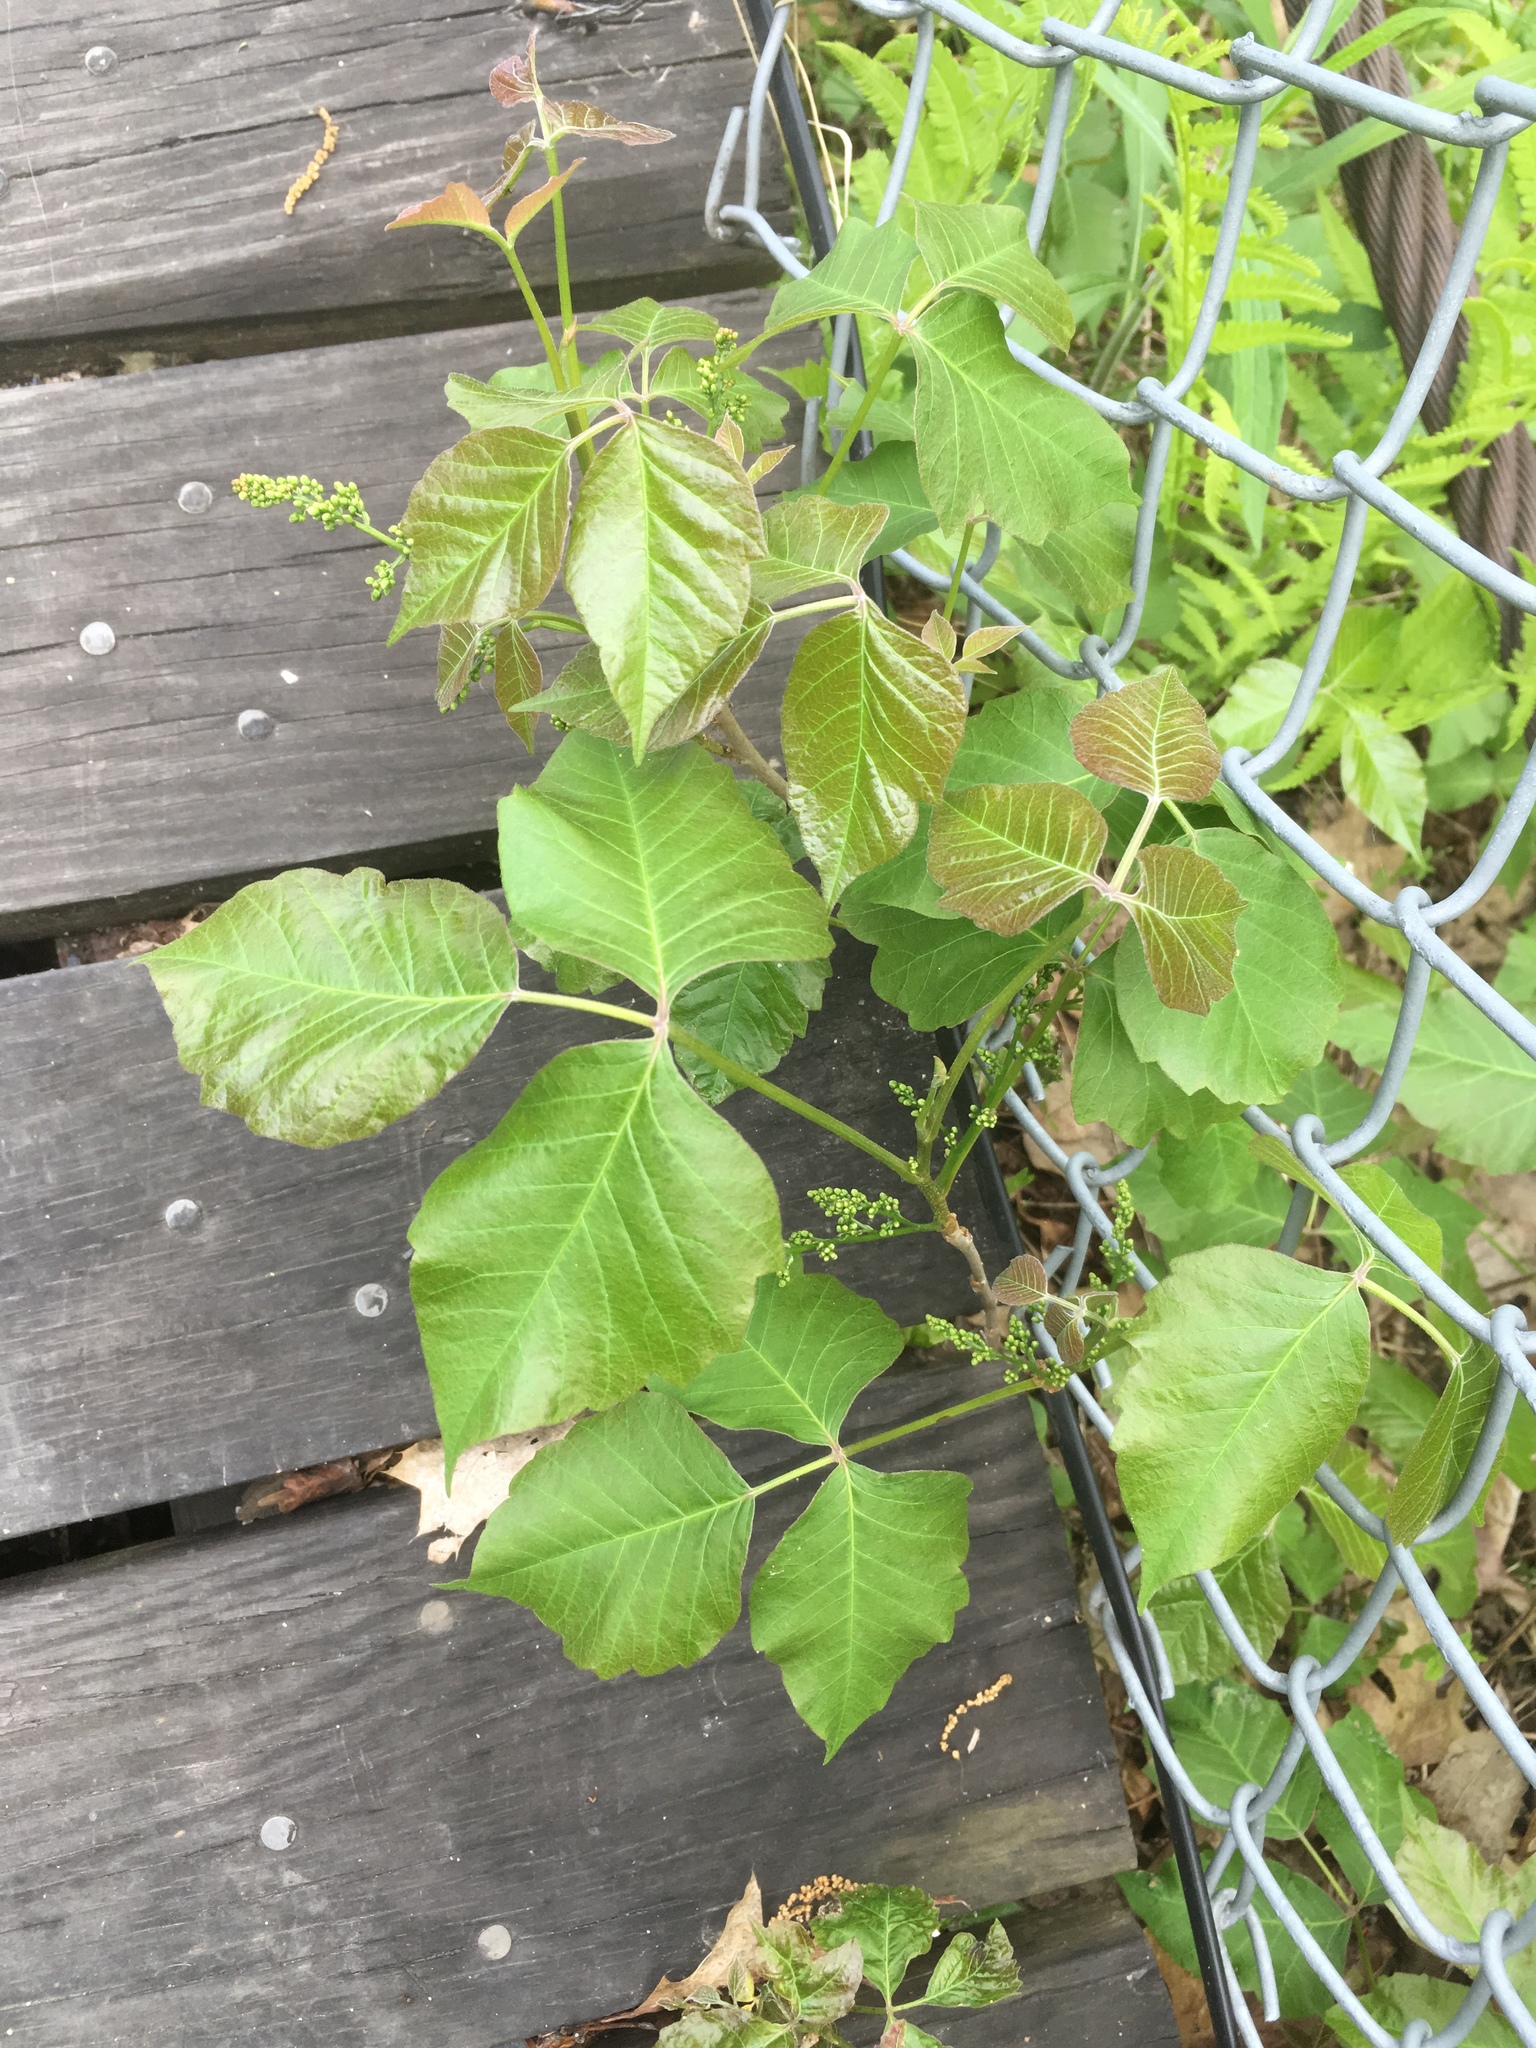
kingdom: Plantae
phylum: Tracheophyta
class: Magnoliopsida
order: Sapindales
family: Anacardiaceae
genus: Toxicodendron
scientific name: Toxicodendron radicans
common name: Poison ivy
